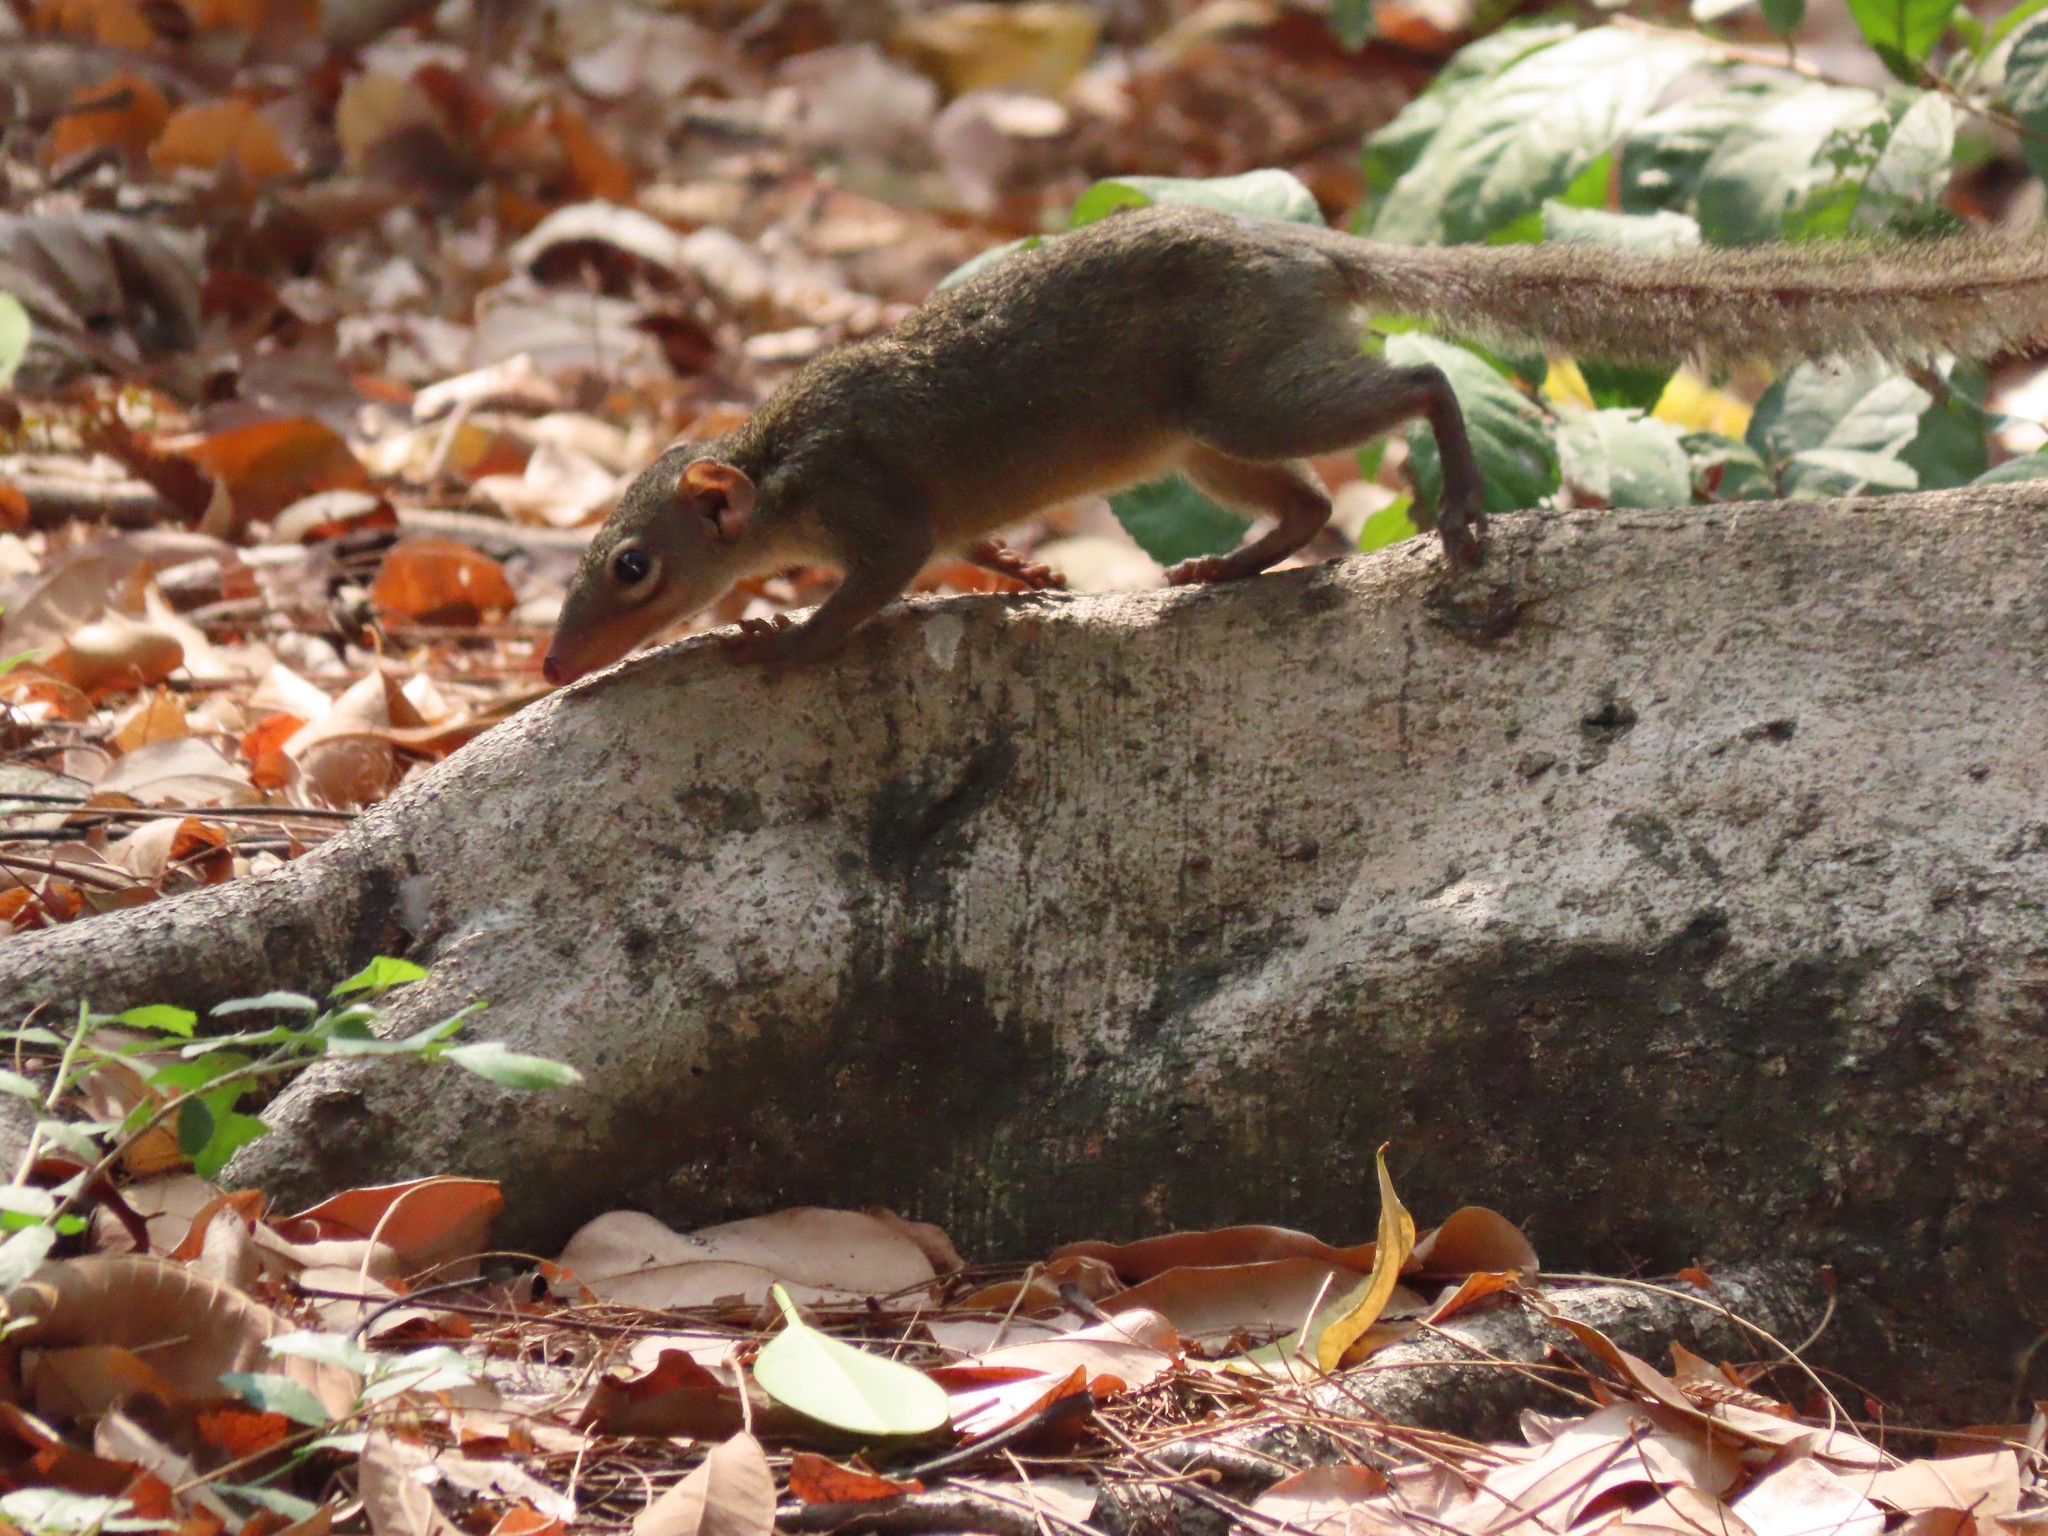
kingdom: Animalia
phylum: Chordata
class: Mammalia
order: Scandentia
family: Tupaiidae
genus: Tupaia
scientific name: Tupaia belangeri
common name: Northern treeshrew
